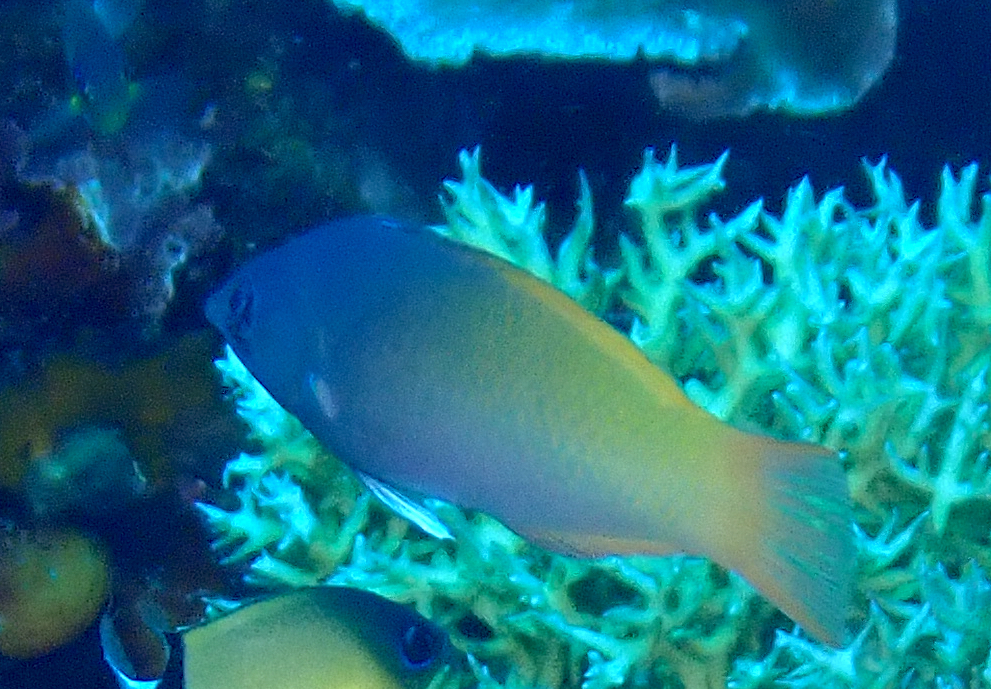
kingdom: Animalia
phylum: Chordata
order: Perciformes
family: Labridae
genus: Halichoeres
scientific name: Halichoeres prosopeion
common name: Half-grey wrasse
